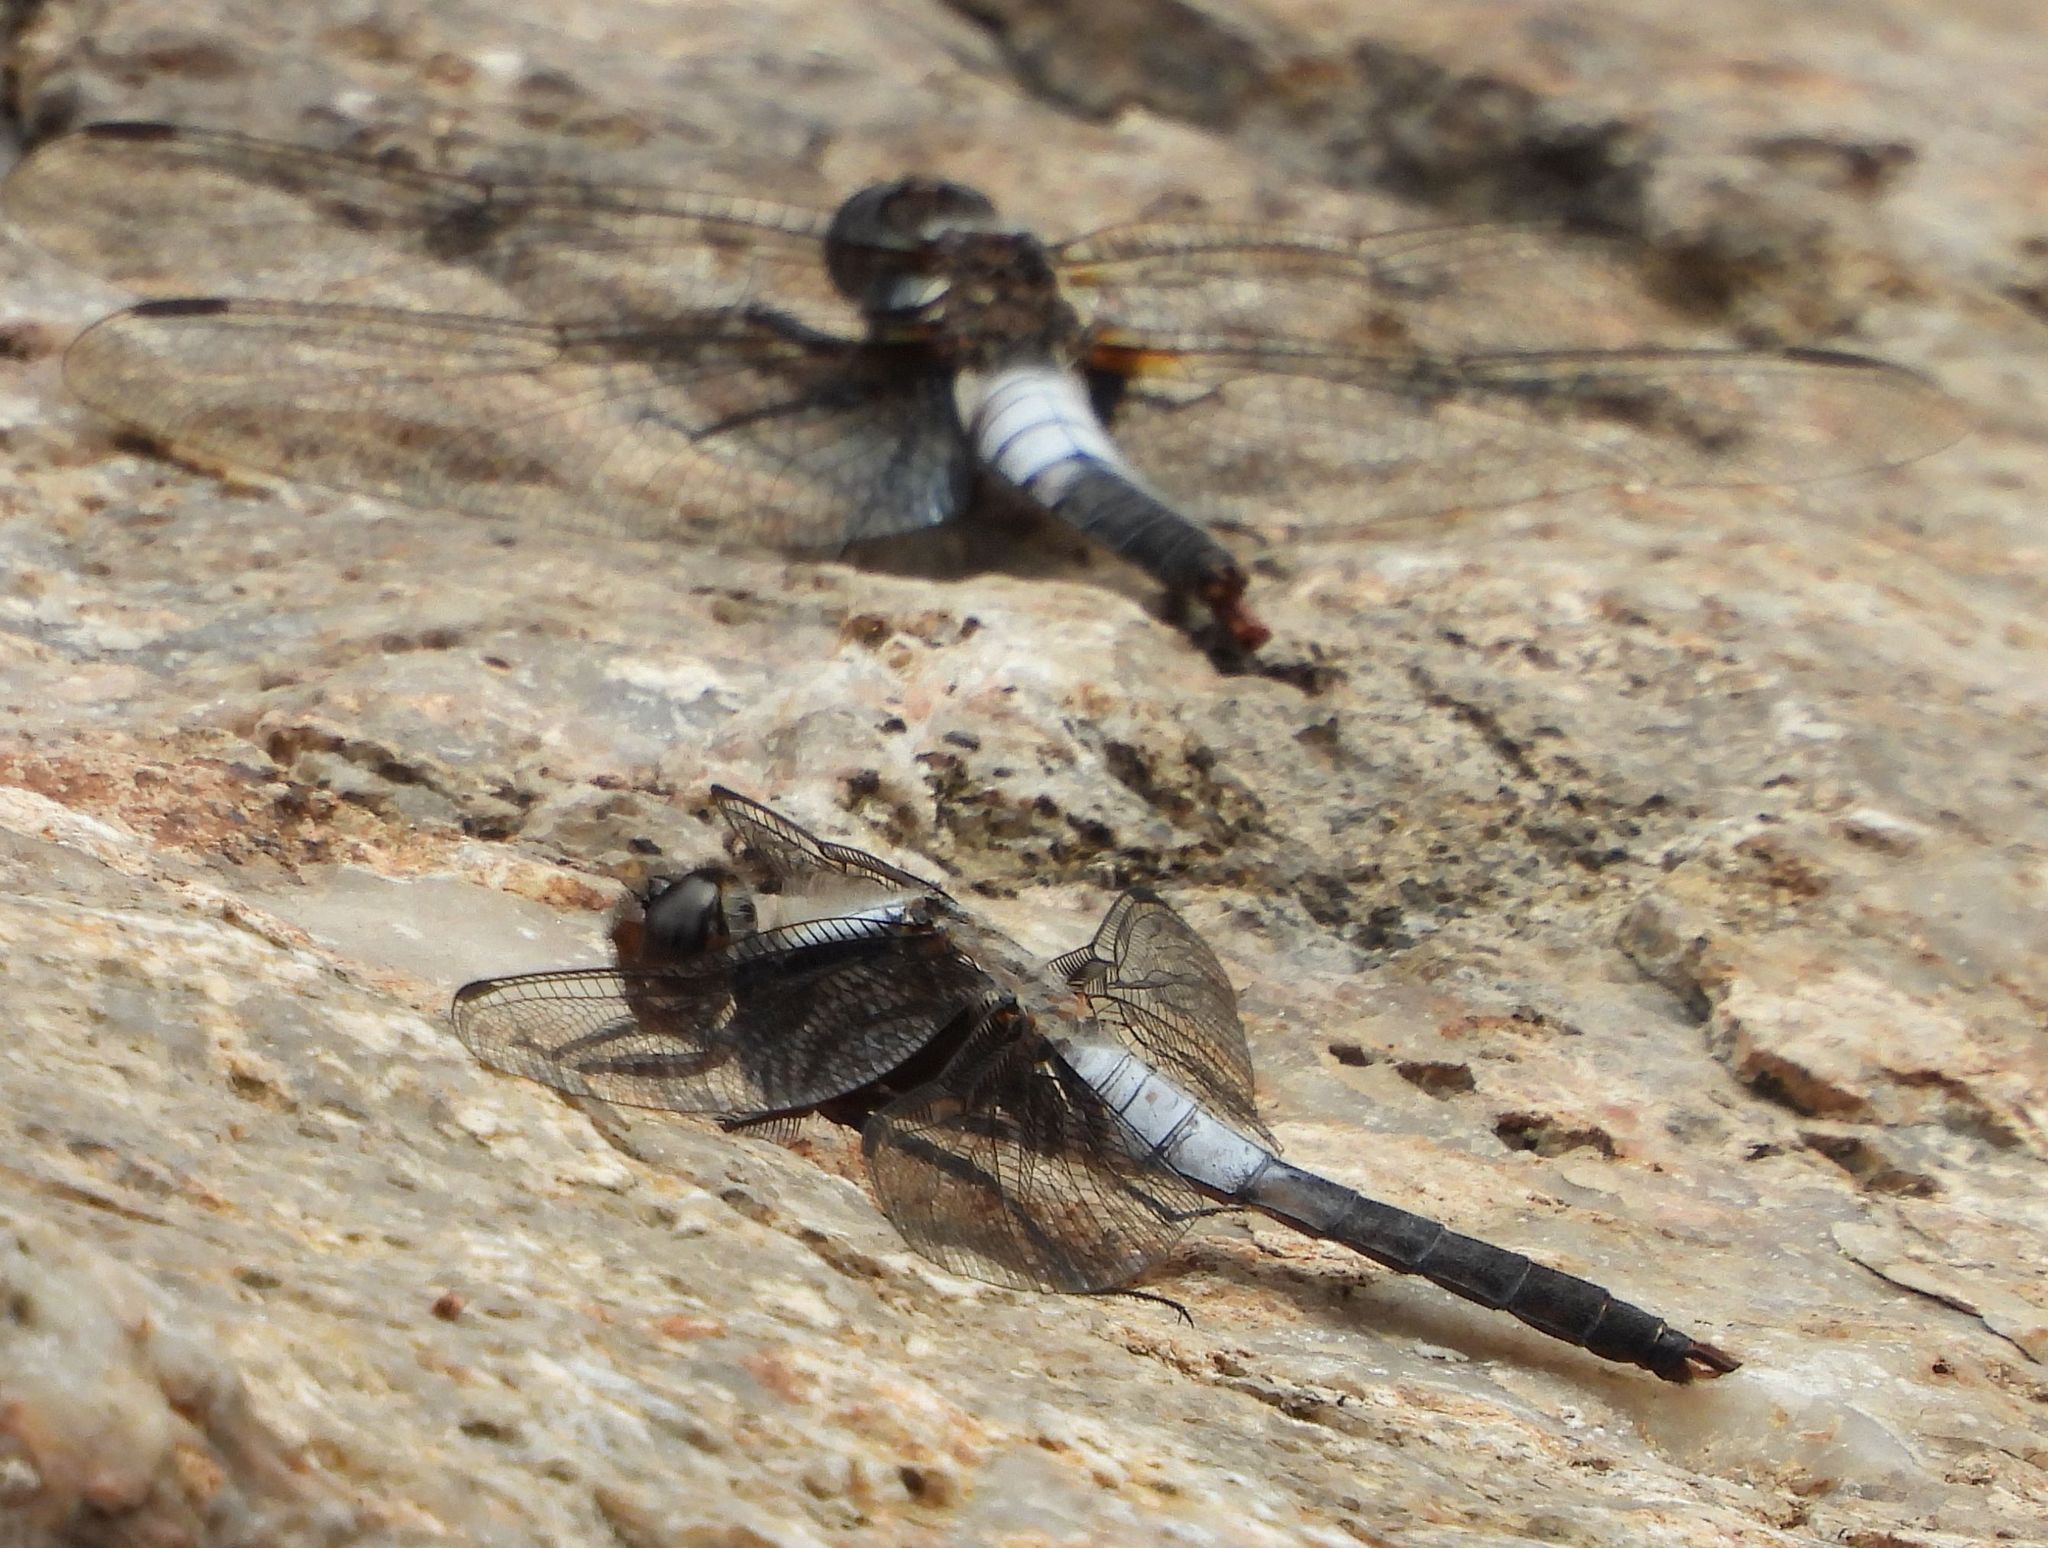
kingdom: Animalia
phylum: Arthropoda
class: Insecta
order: Odonata
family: Libellulidae
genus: Ladona
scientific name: Ladona julia
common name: Chalk-fronted corporal
